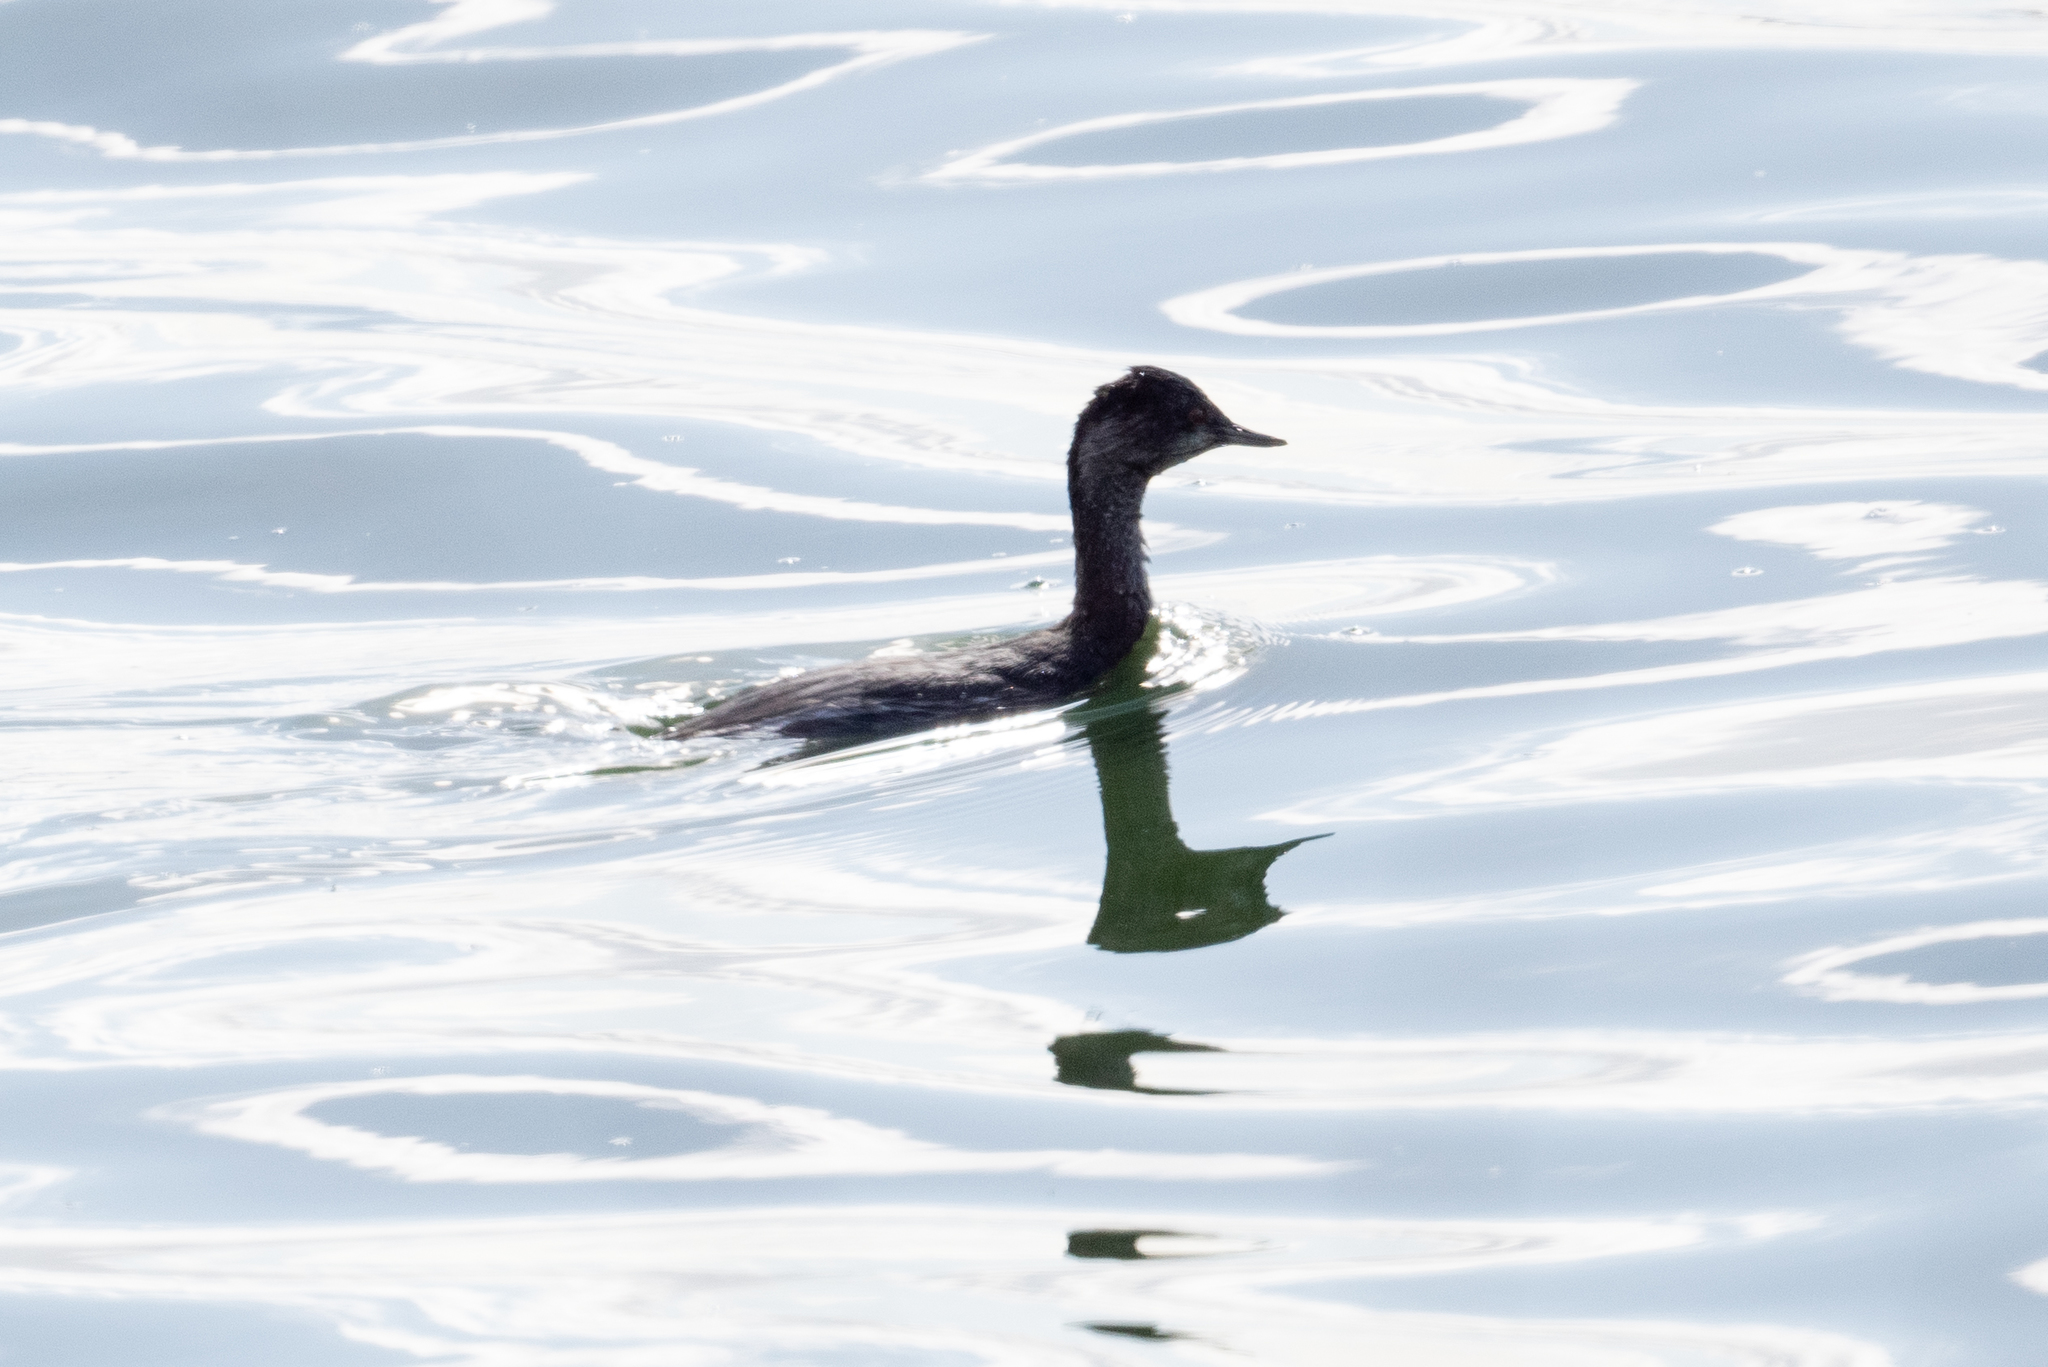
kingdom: Animalia
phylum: Chordata
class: Aves
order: Podicipediformes
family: Podicipedidae
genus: Podiceps
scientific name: Podiceps nigricollis
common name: Black-necked grebe
